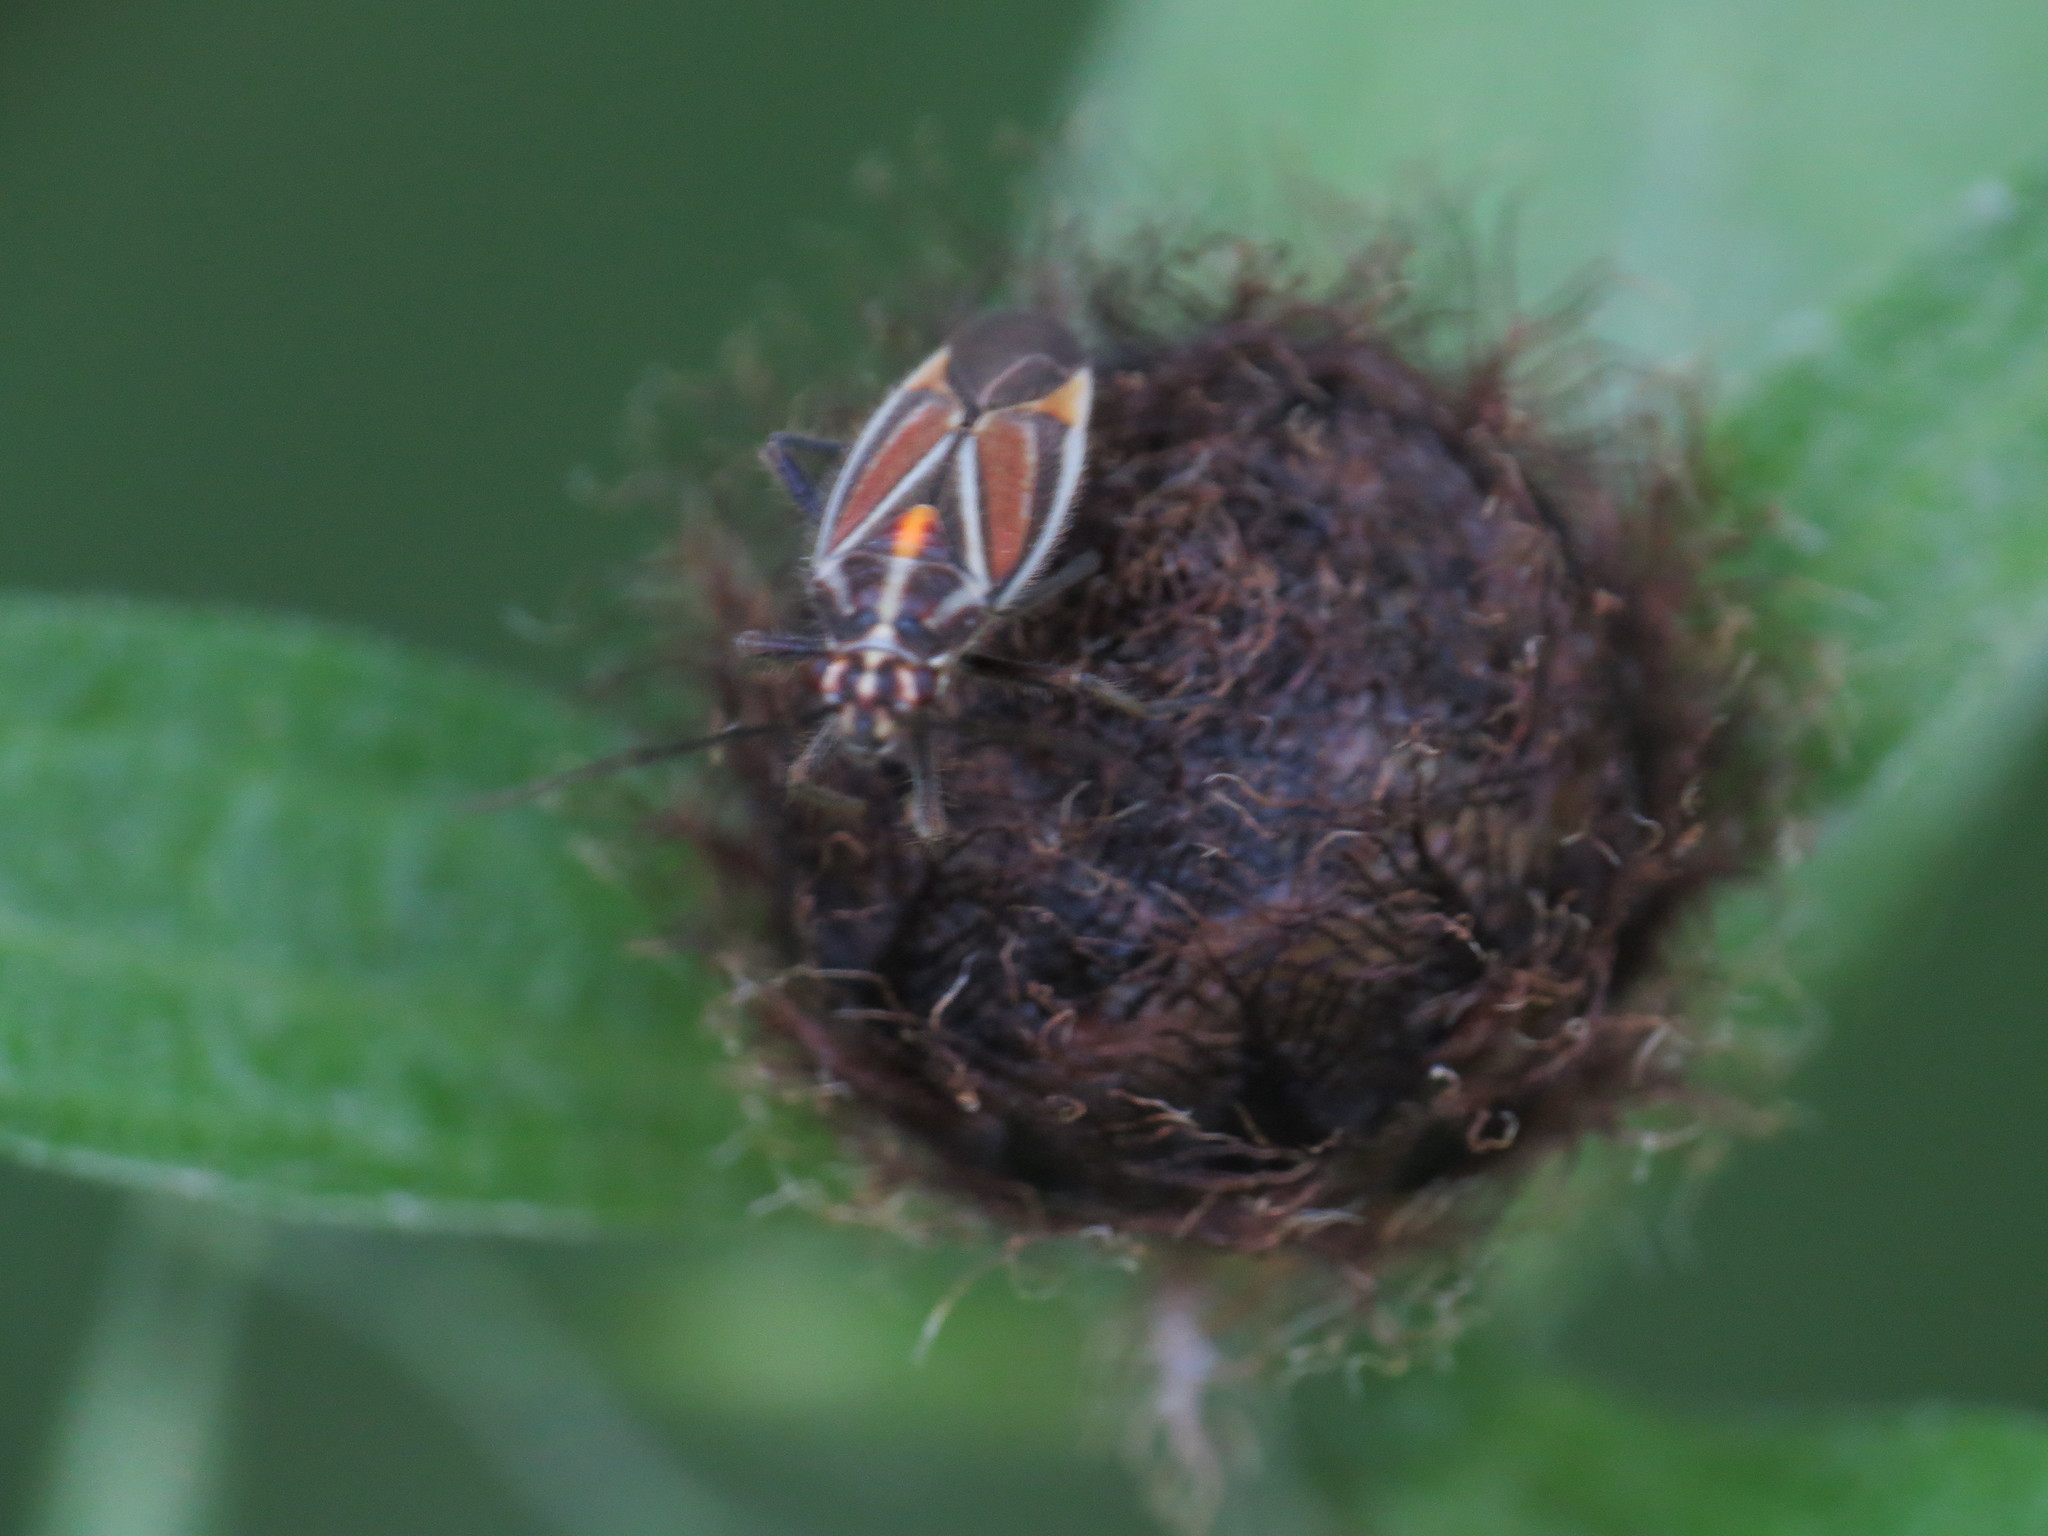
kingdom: Animalia
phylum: Arthropoda
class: Insecta
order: Hemiptera
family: Miridae
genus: Horistus
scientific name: Horistus orientalis
